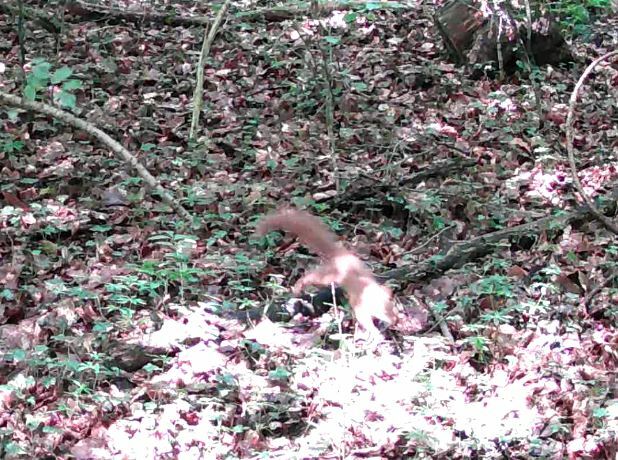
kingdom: Animalia
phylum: Chordata
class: Mammalia
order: Rodentia
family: Sciuridae
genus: Sciurus
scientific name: Sciurus vulgaris
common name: Eurasian red squirrel
